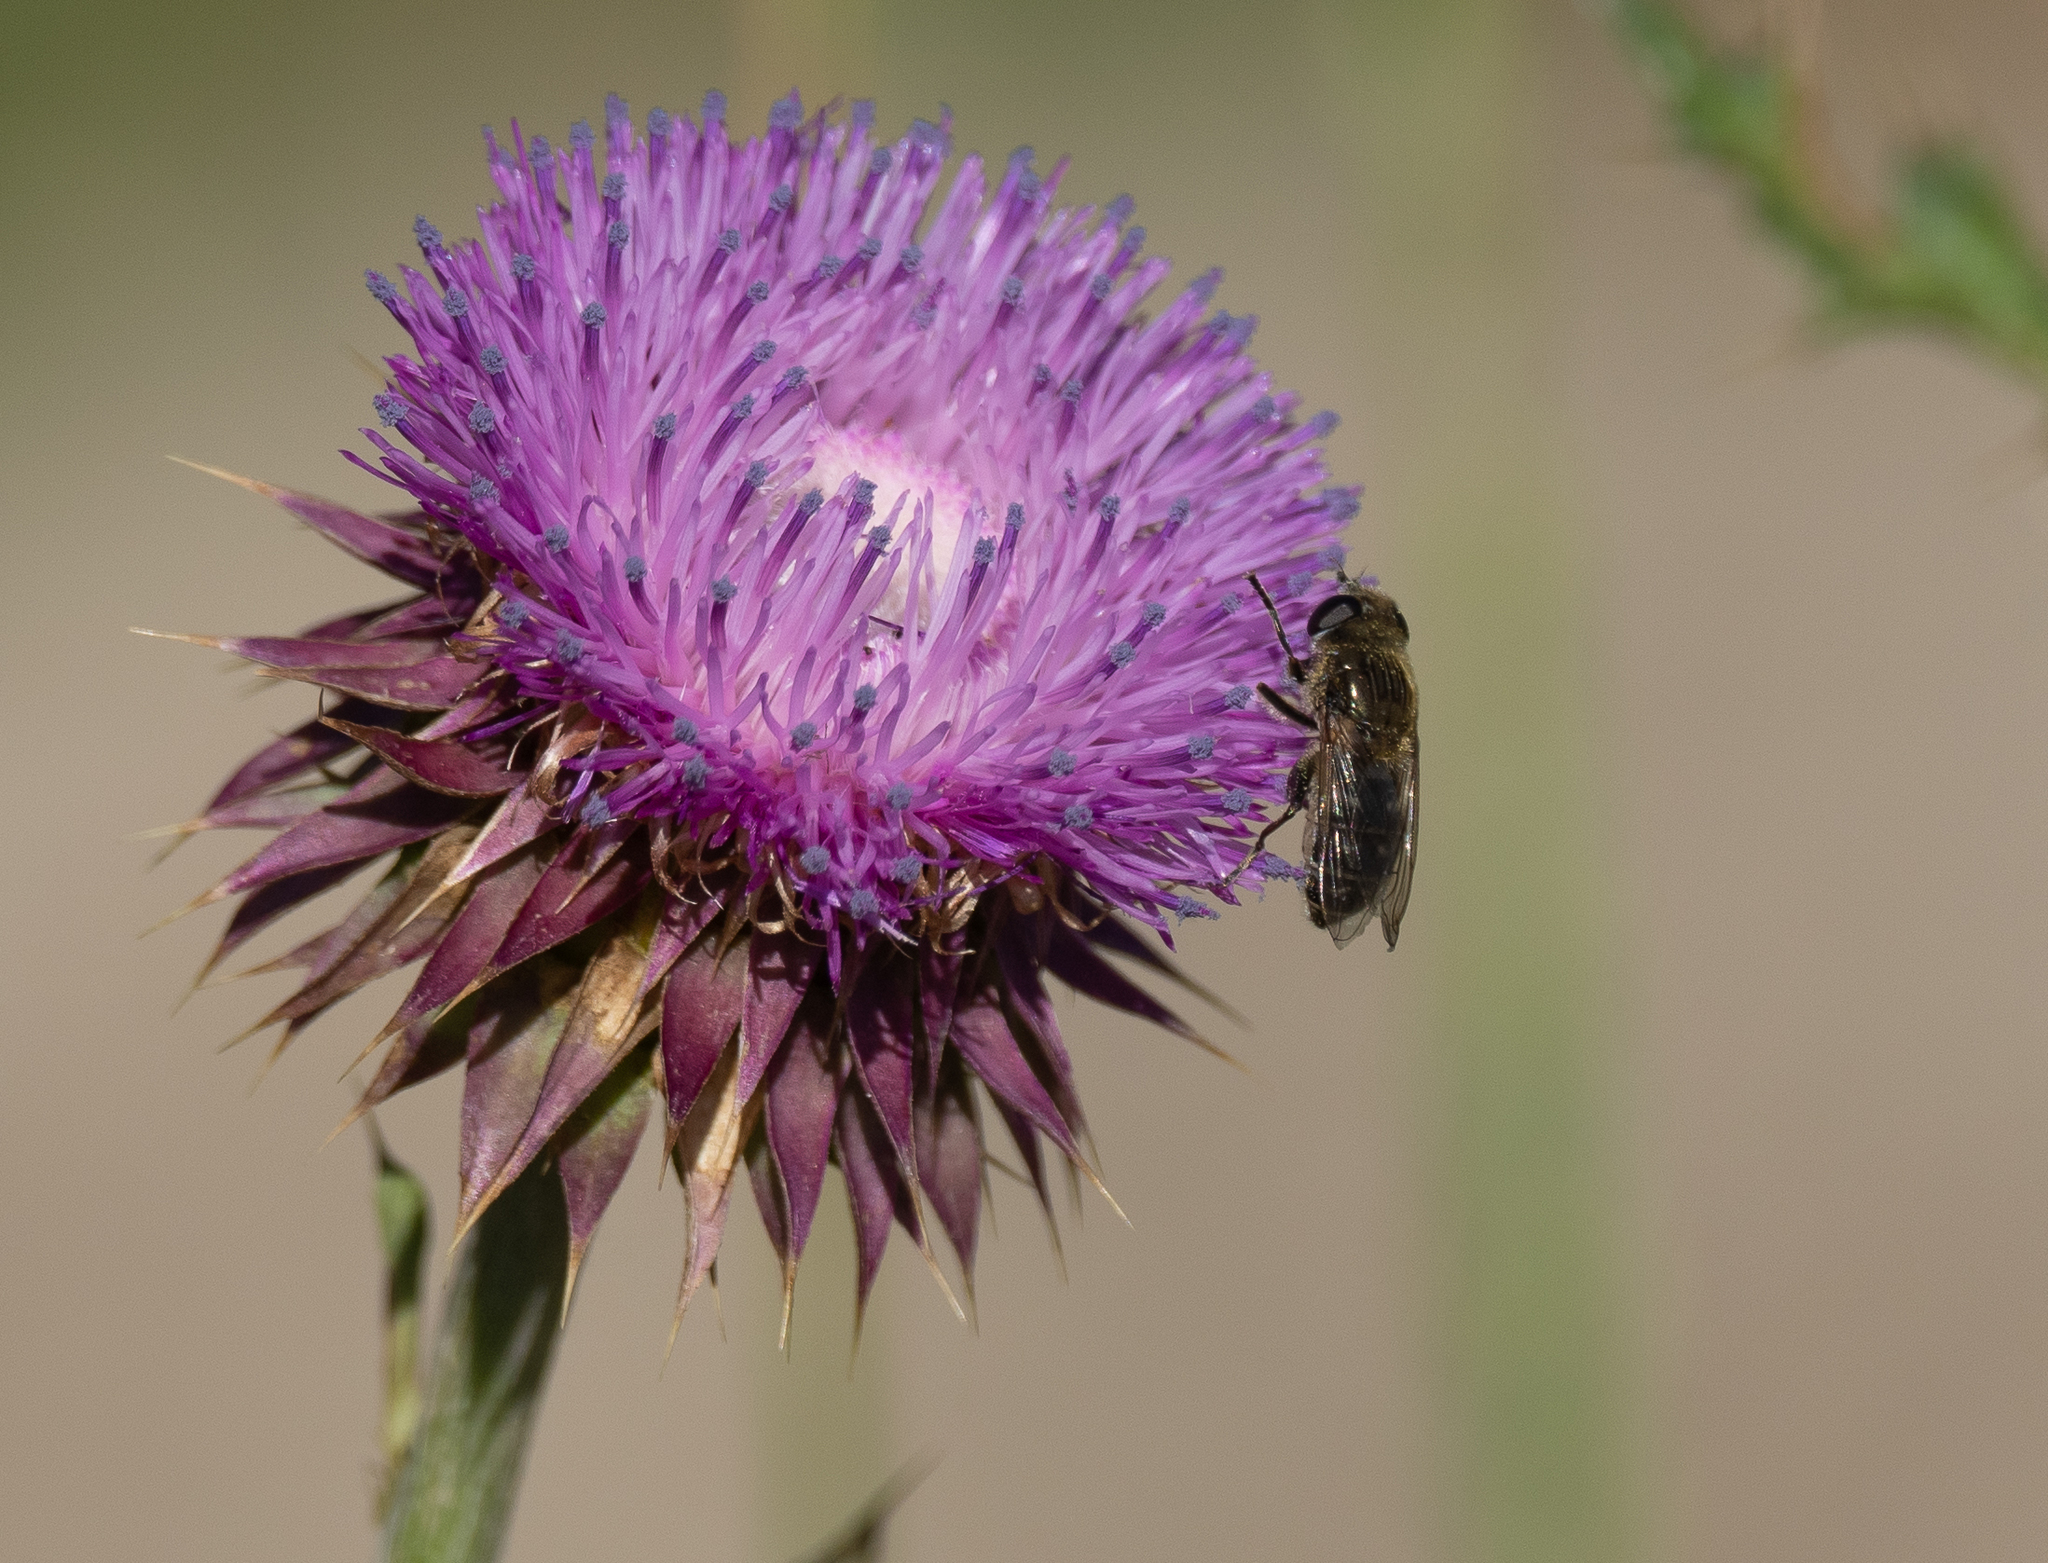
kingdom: Animalia
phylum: Arthropoda
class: Insecta
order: Diptera
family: Syrphidae
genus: Asemosyrphus
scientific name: Asemosyrphus polygrammus
